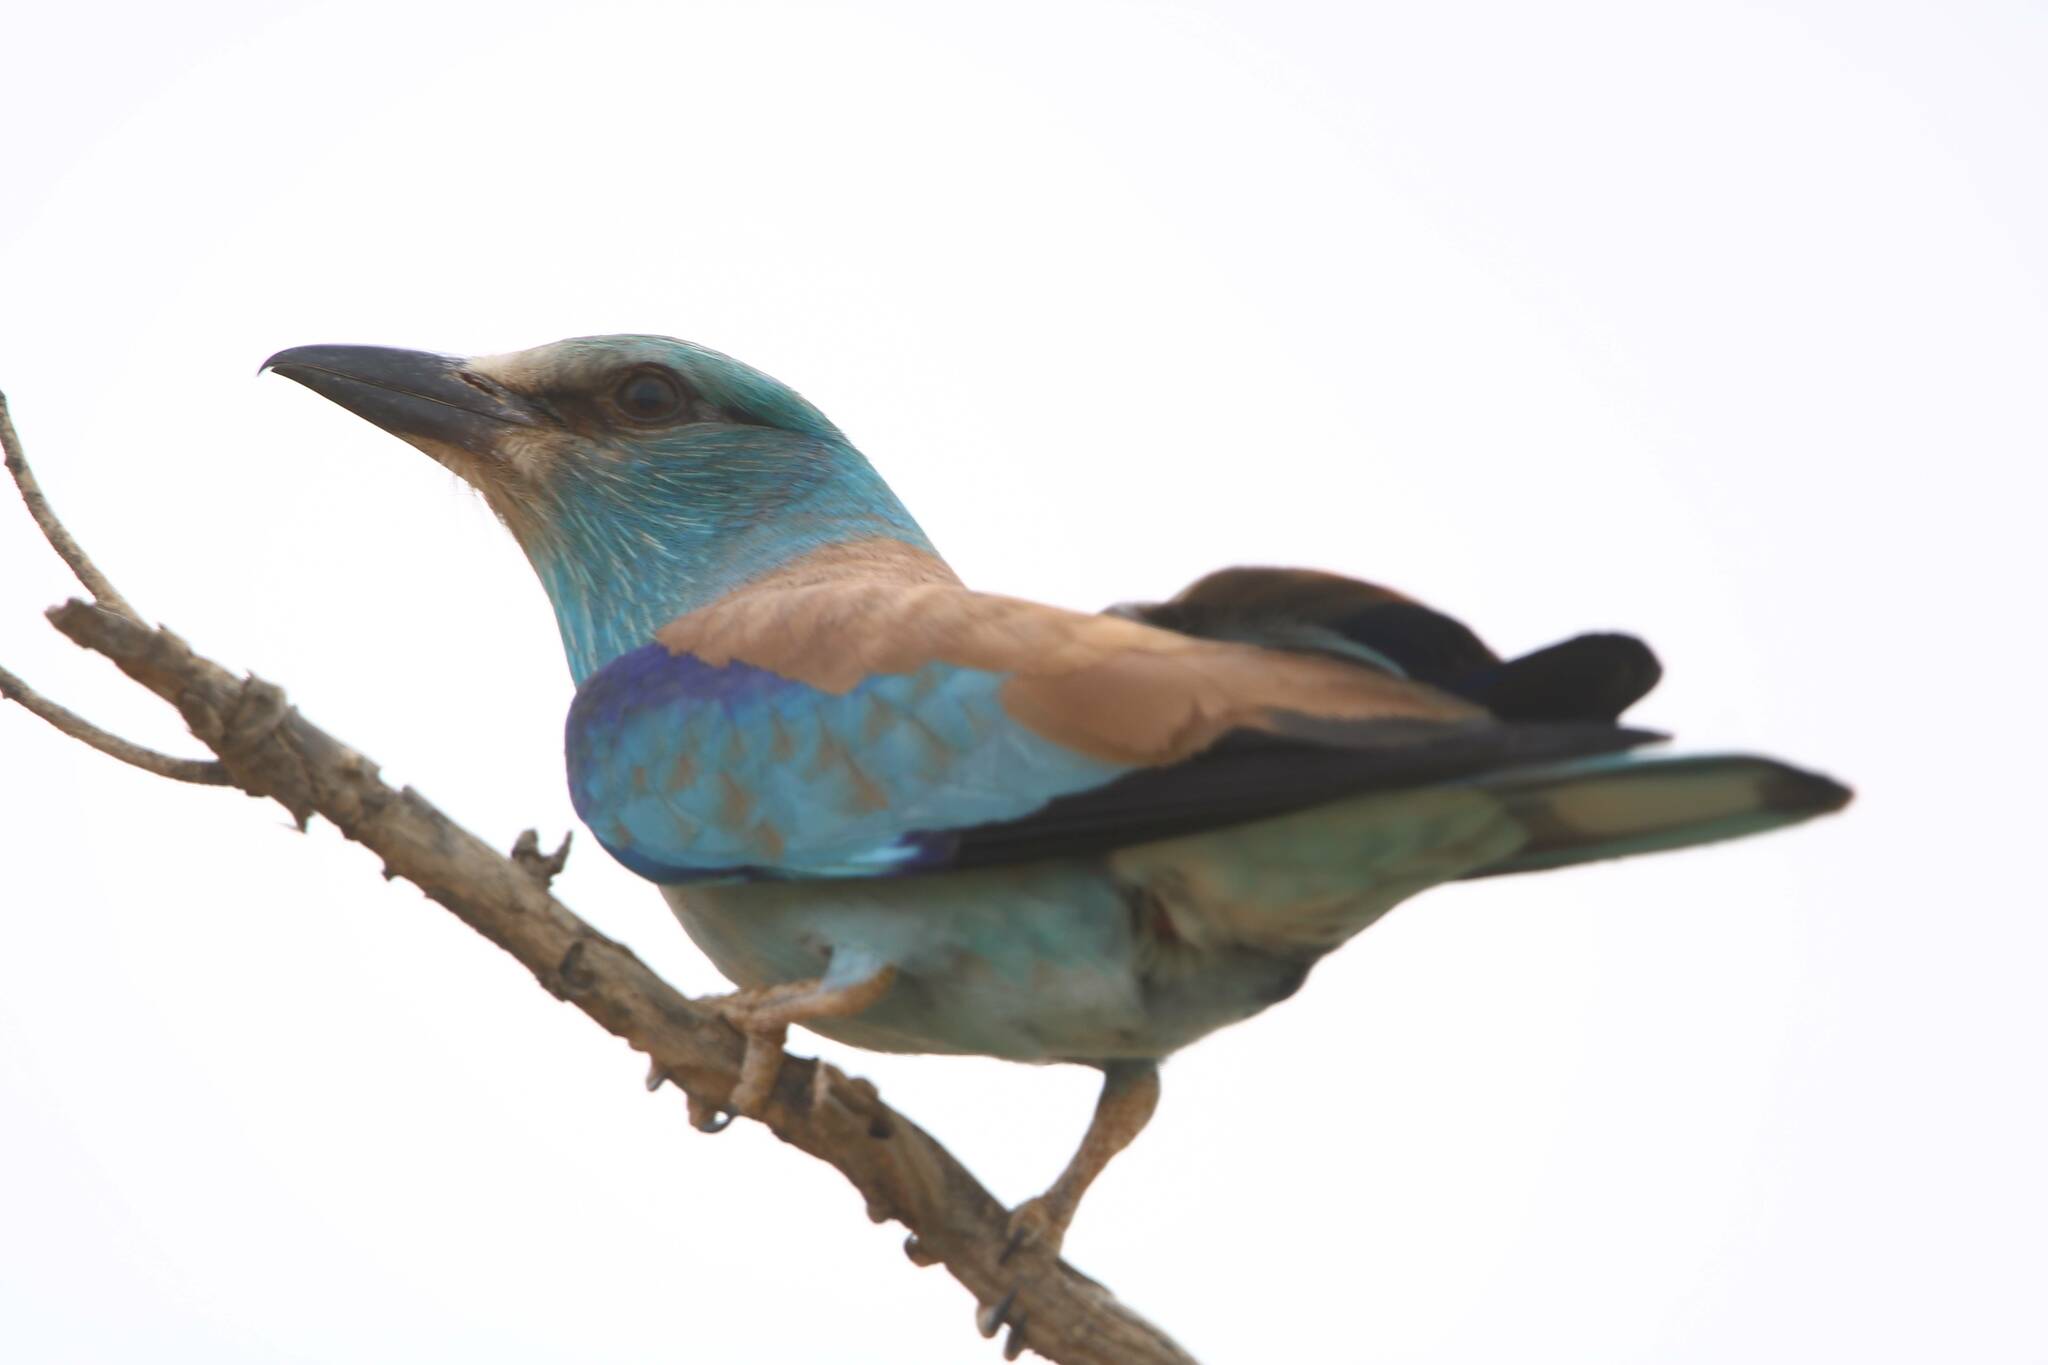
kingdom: Animalia
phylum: Chordata
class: Aves
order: Coraciiformes
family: Coraciidae
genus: Coracias
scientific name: Coracias garrulus
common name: European roller
